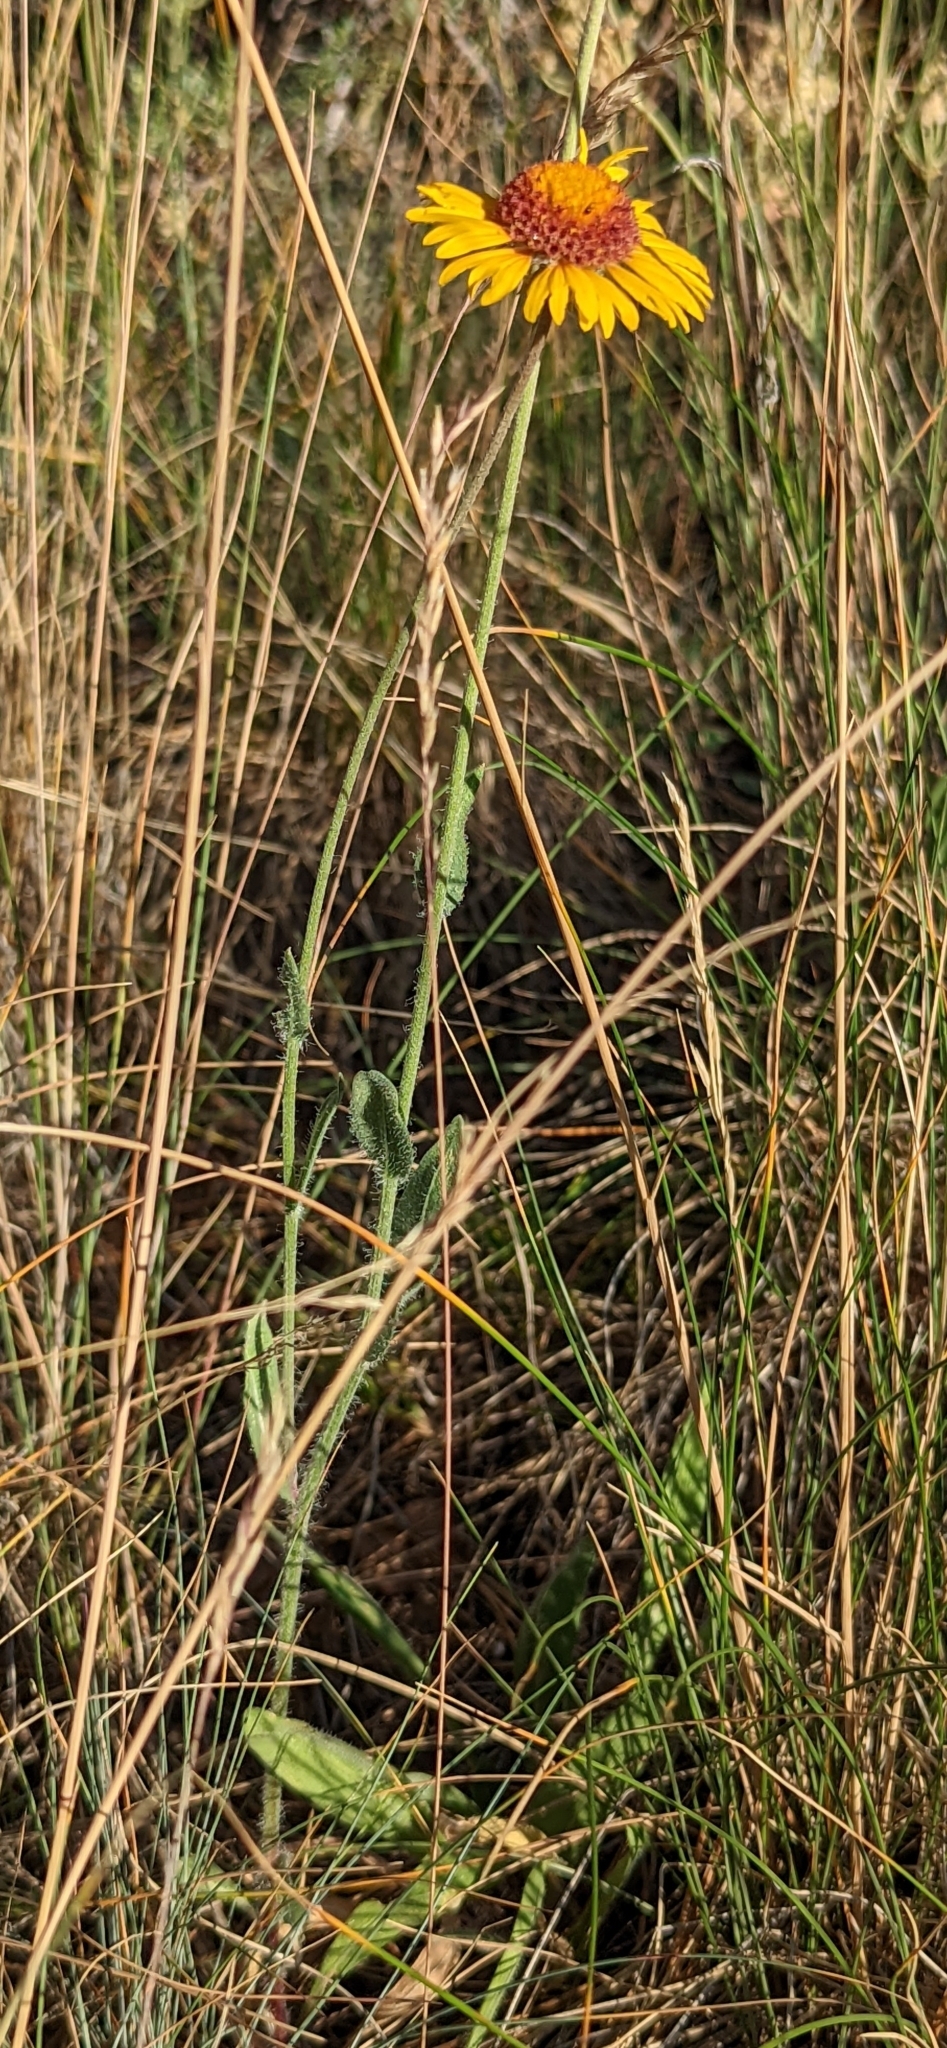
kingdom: Plantae
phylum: Tracheophyta
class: Magnoliopsida
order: Asterales
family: Asteraceae
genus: Gaillardia
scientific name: Gaillardia aristata
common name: Blanket-flower
